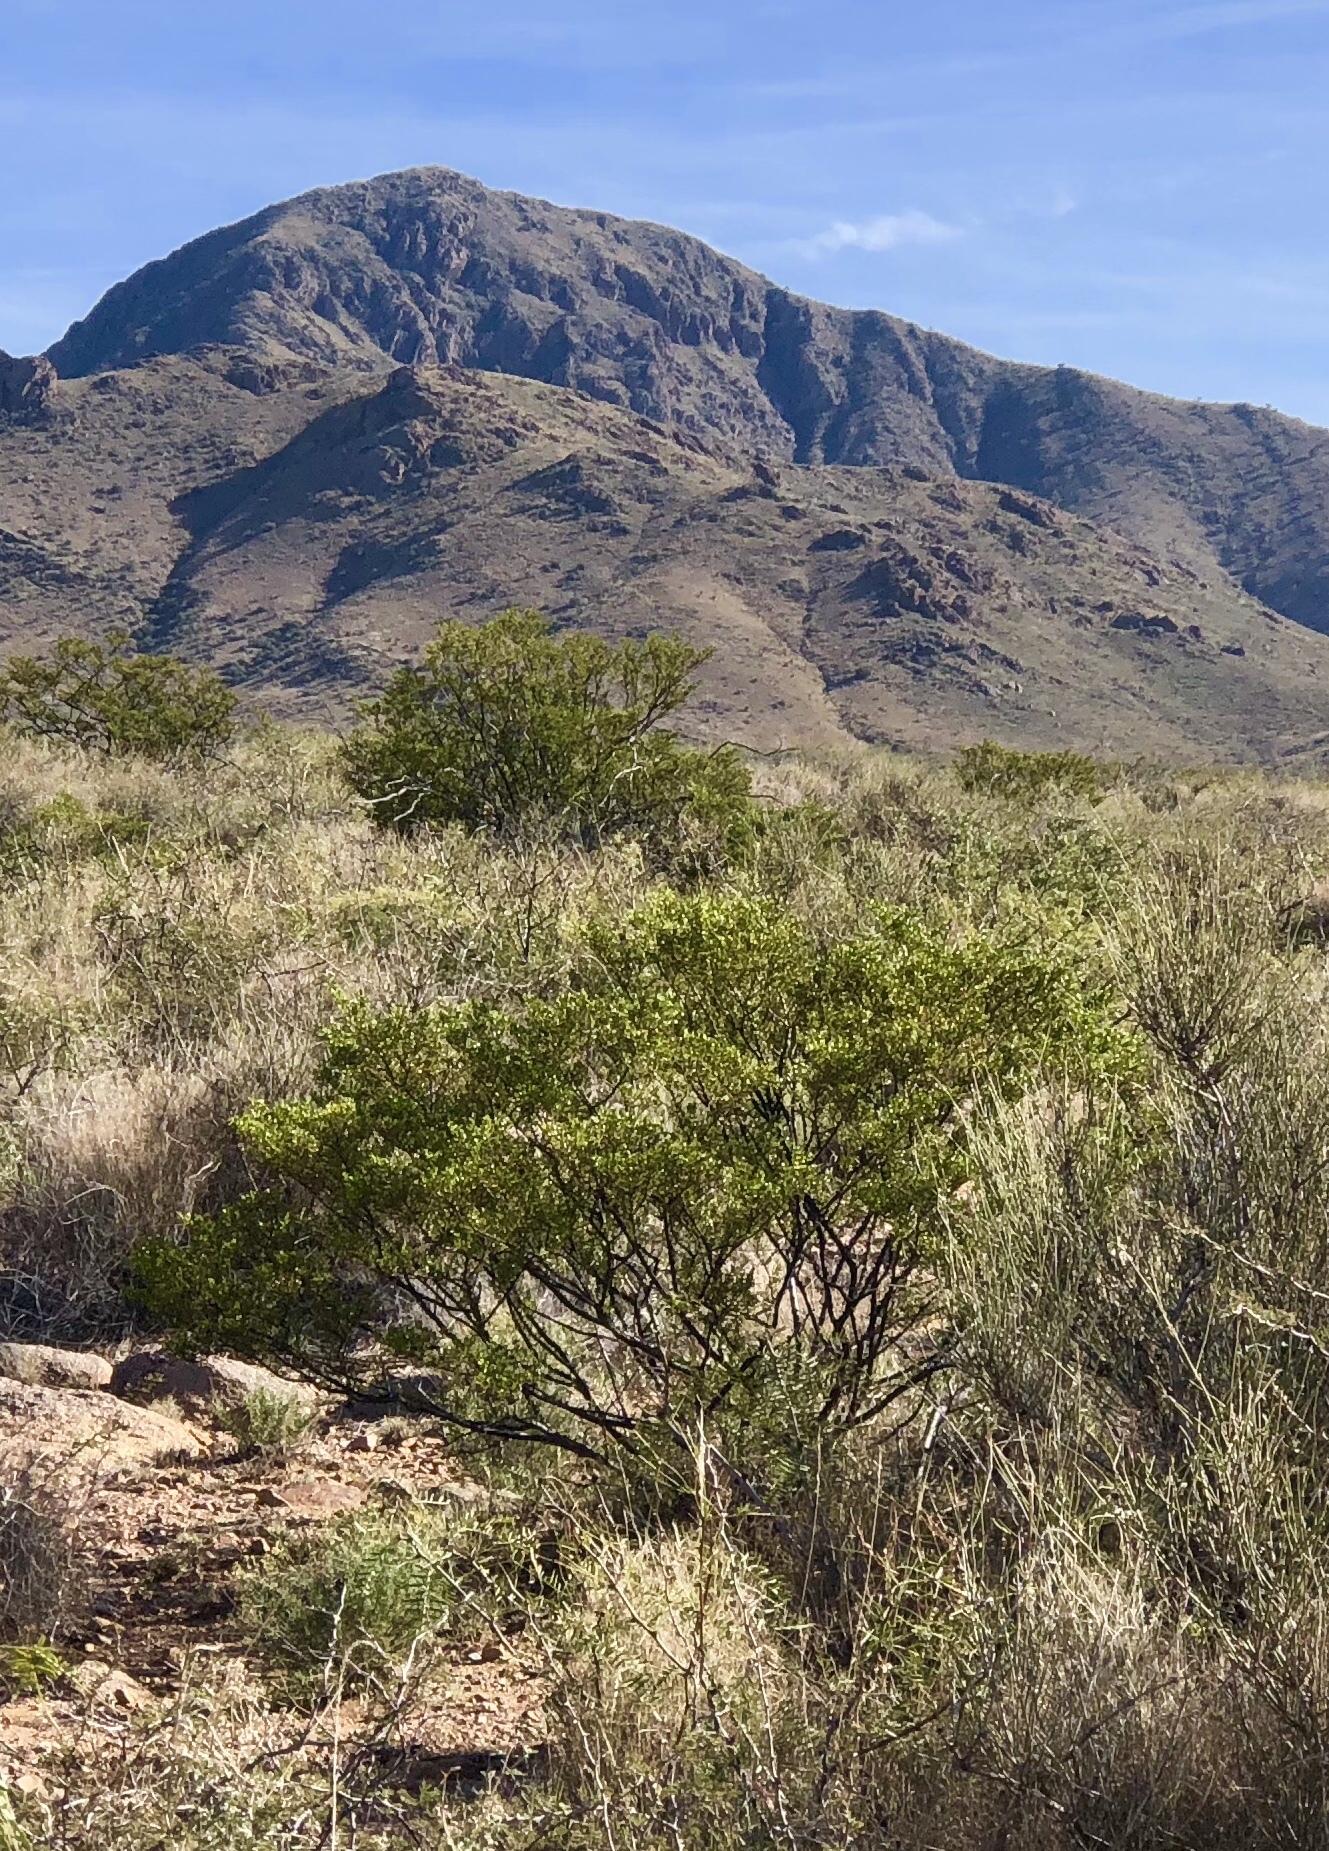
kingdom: Plantae
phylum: Tracheophyta
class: Magnoliopsida
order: Zygophyllales
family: Zygophyllaceae
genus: Larrea
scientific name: Larrea tridentata
